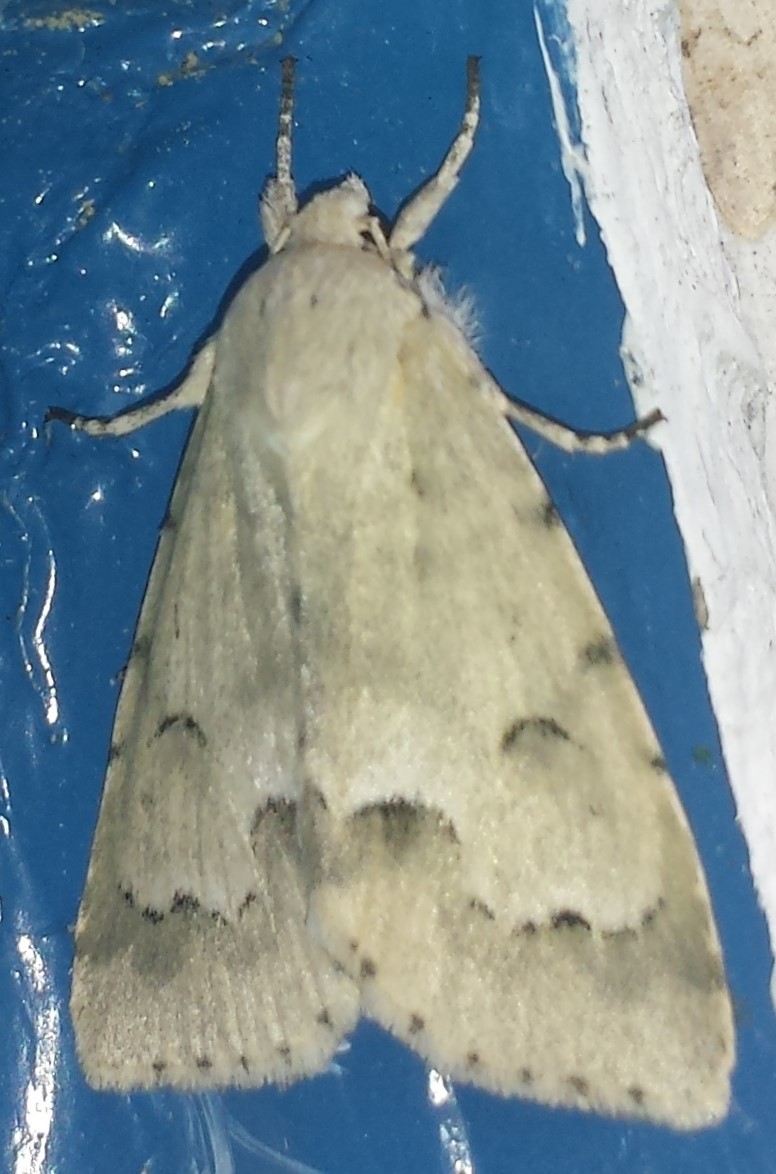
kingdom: Animalia
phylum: Arthropoda
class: Insecta
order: Lepidoptera
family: Noctuidae
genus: Acronicta
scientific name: Acronicta innotata
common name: Unmarked dagger
